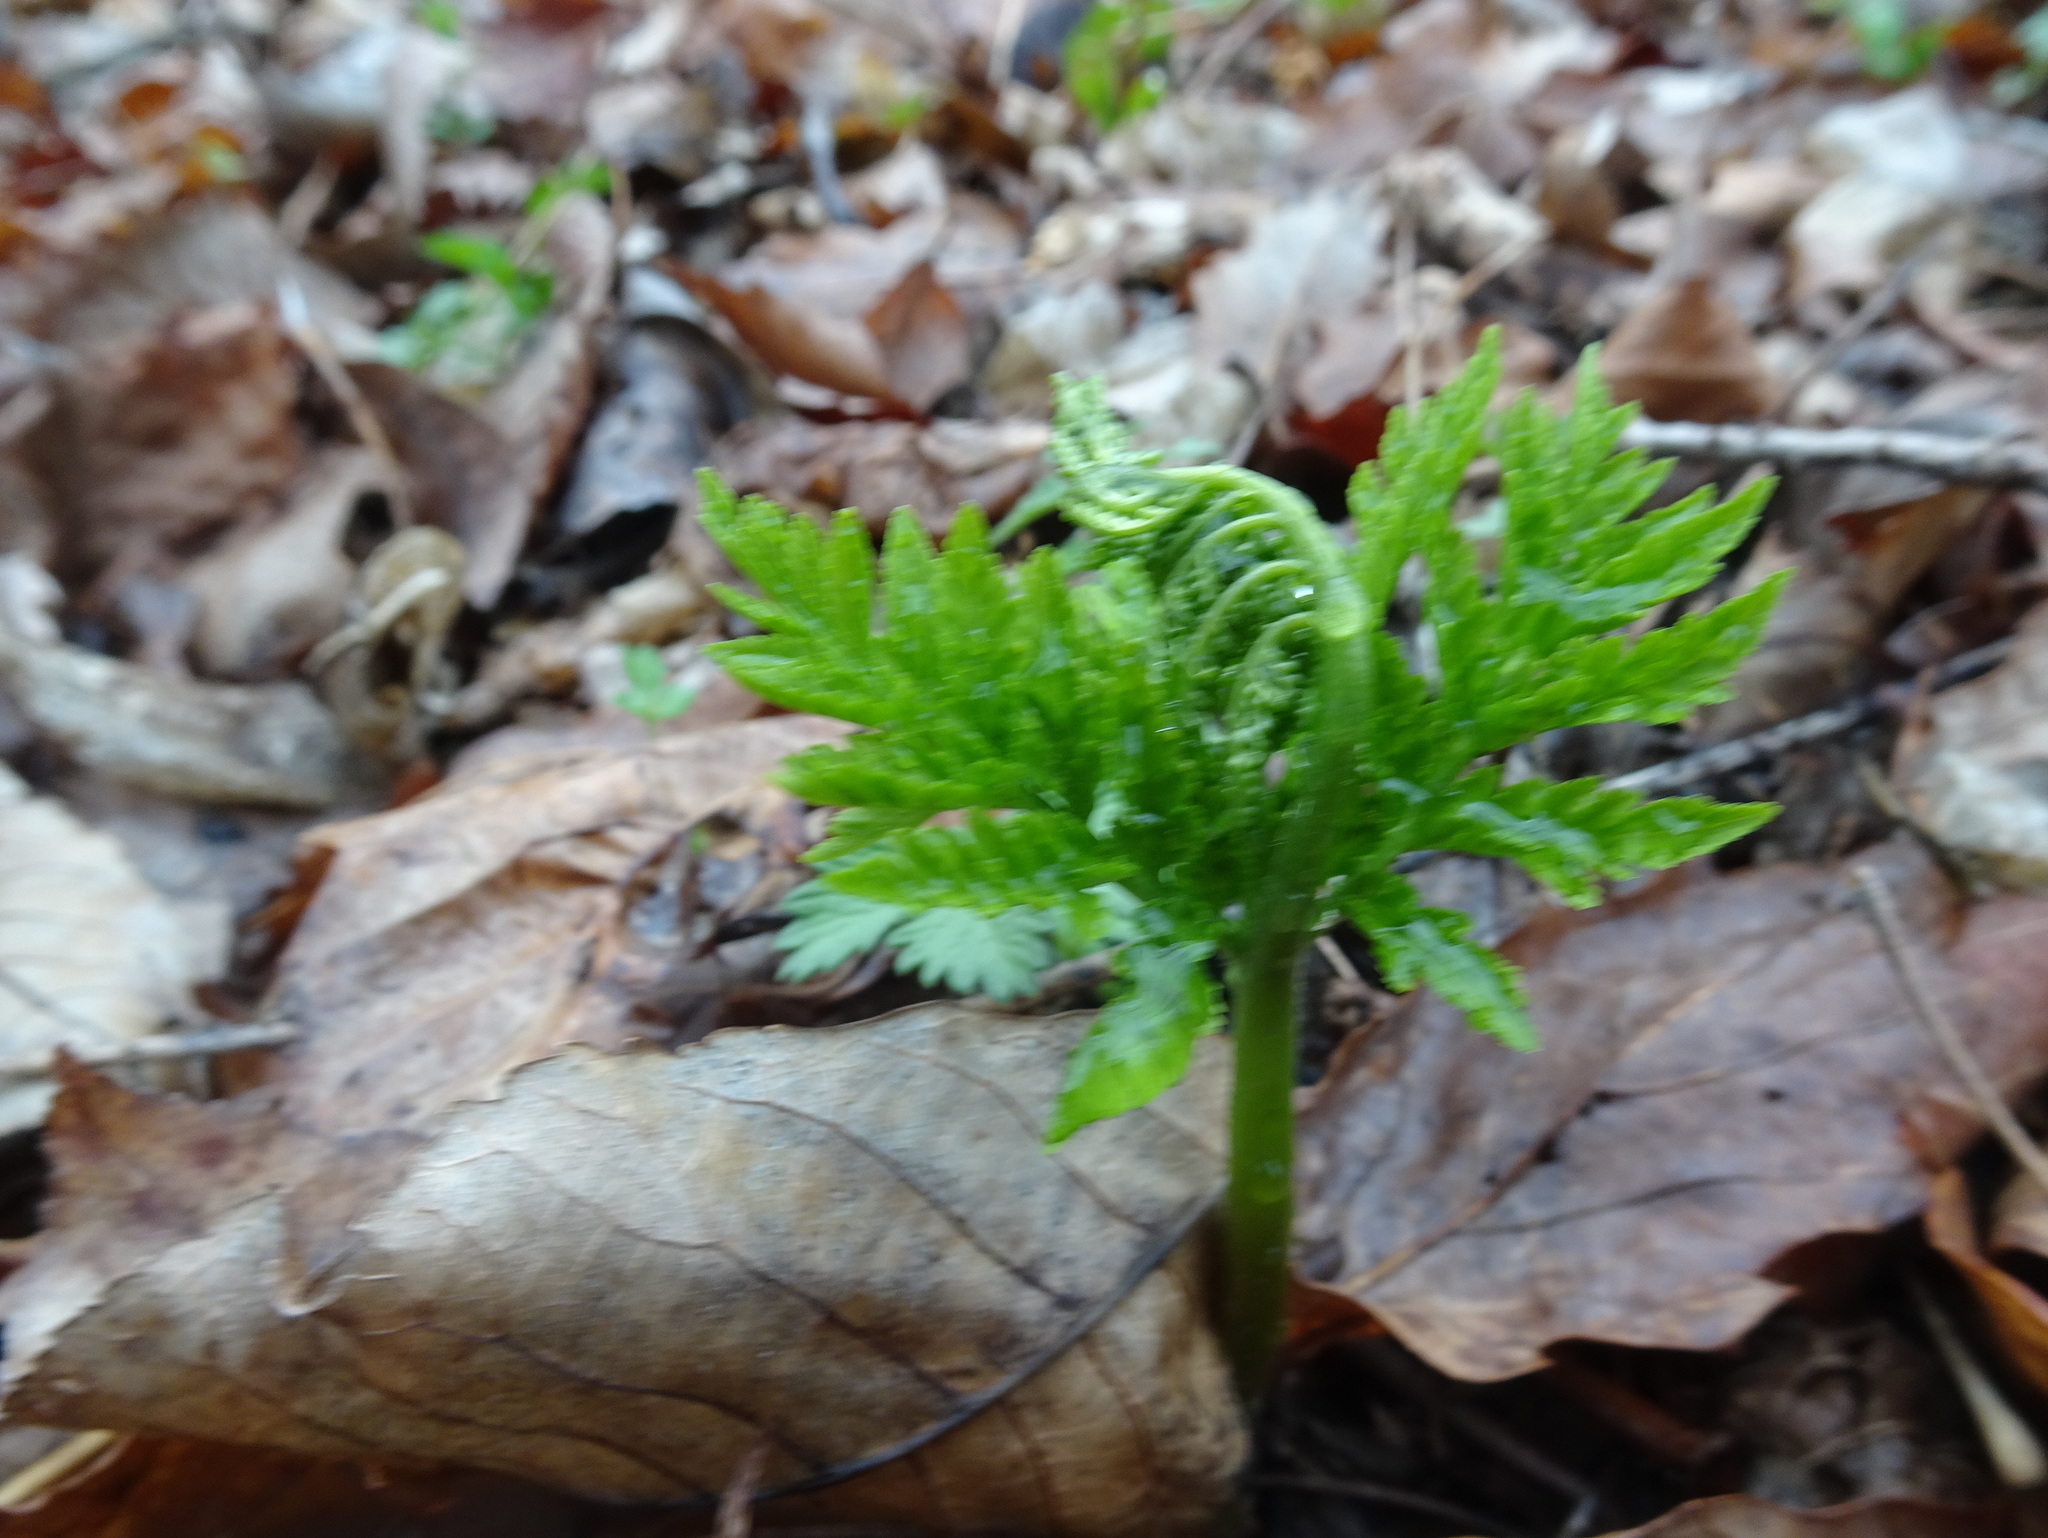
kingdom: Plantae
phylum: Tracheophyta
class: Polypodiopsida
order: Ophioglossales
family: Ophioglossaceae
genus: Botrypus
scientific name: Botrypus virginianus
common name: Common grapefern
